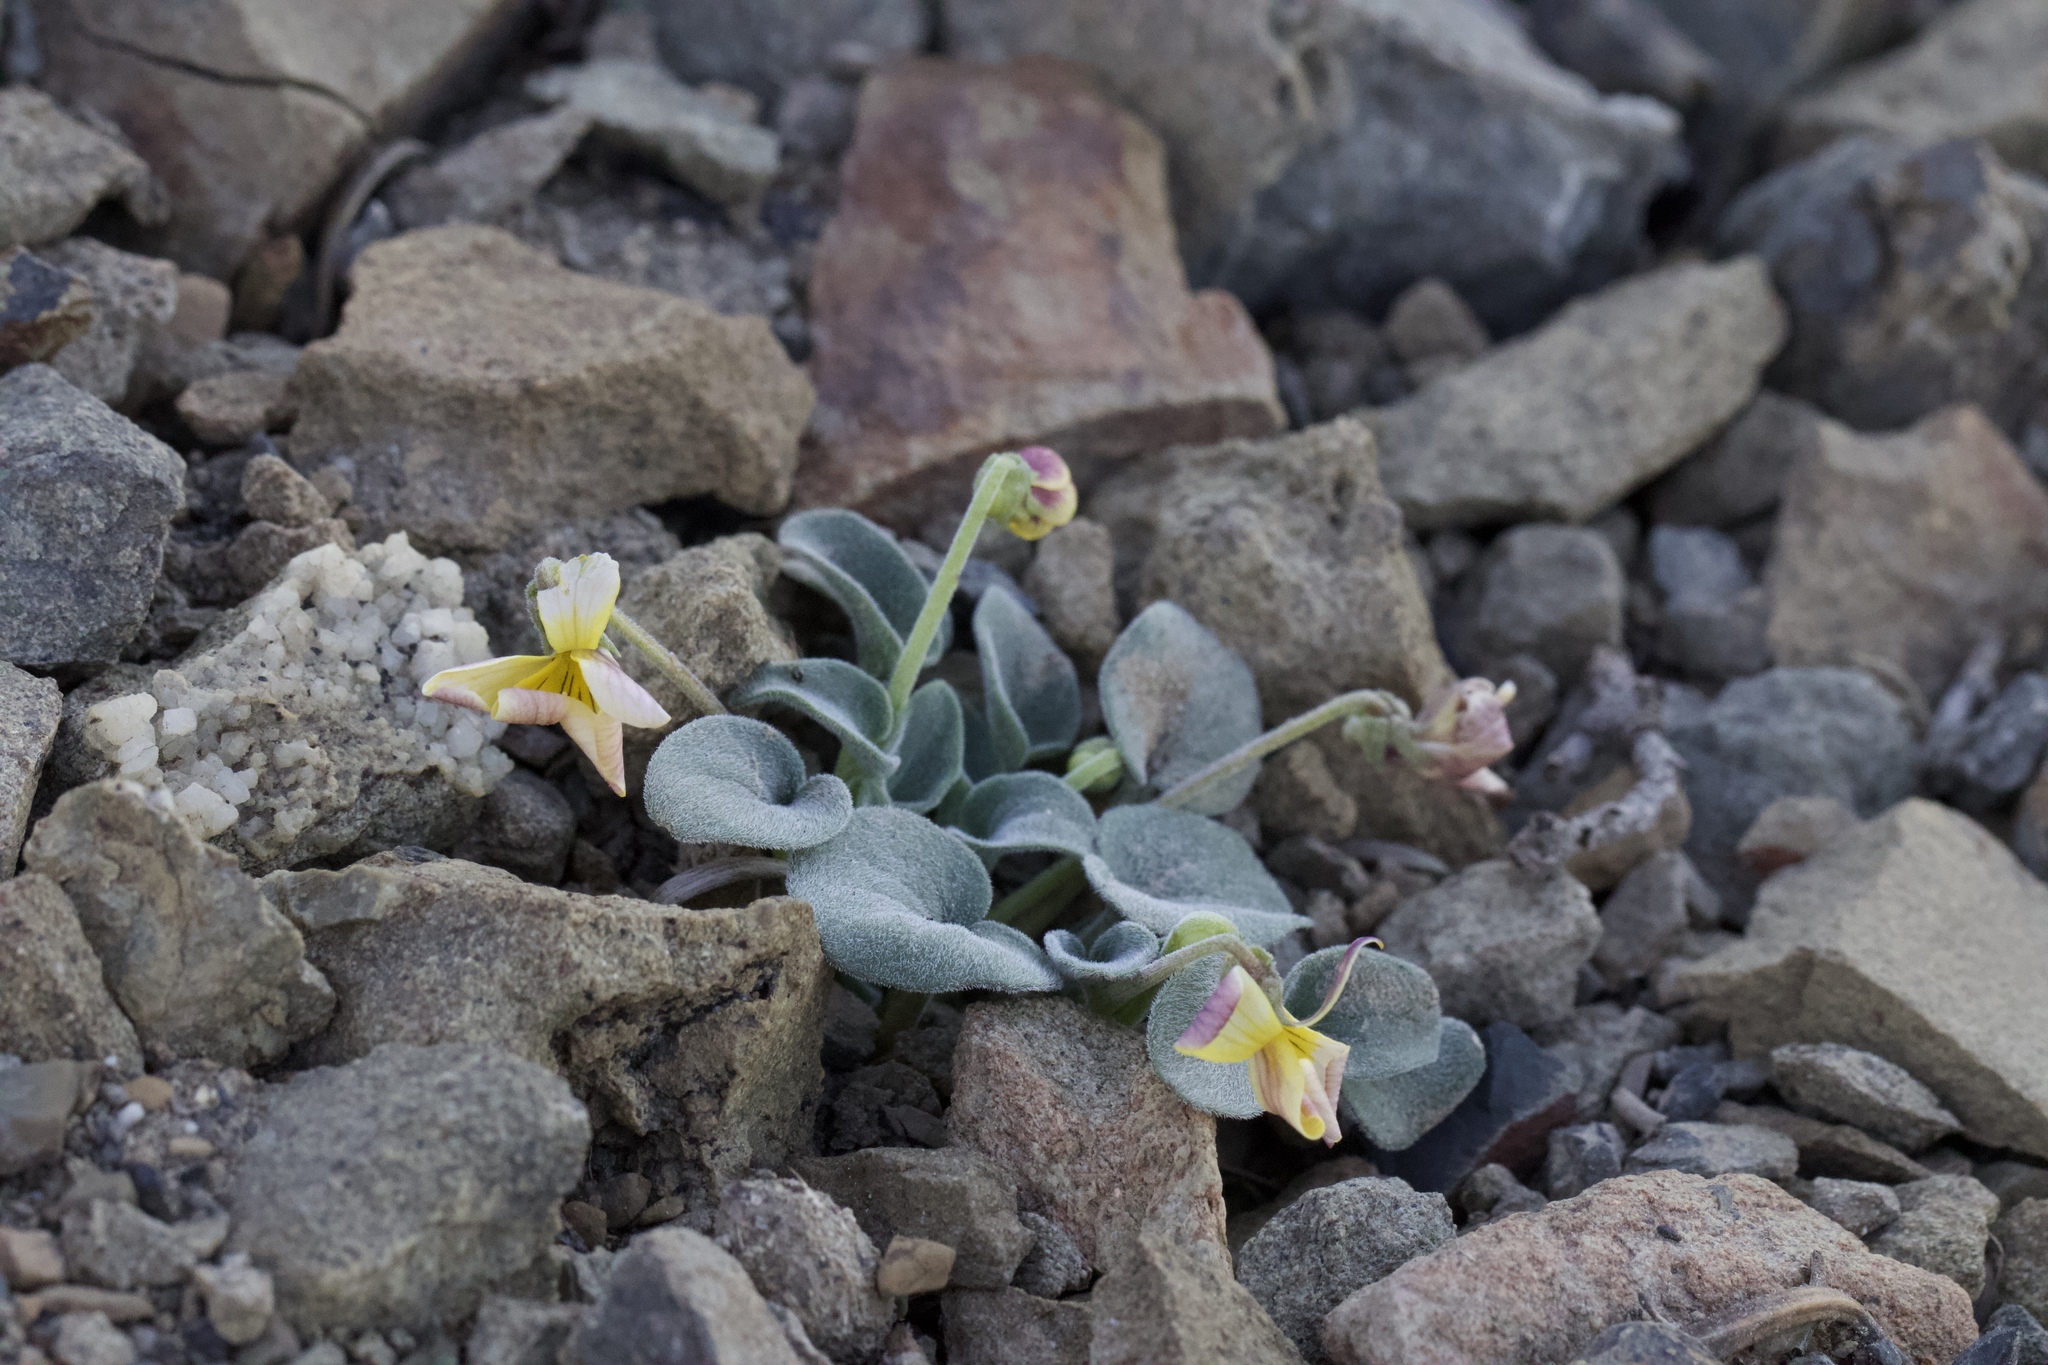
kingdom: Plantae
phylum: Tracheophyta
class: Magnoliopsida
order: Malpighiales
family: Violaceae
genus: Viola
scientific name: Viola purpurea
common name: Pine violet
